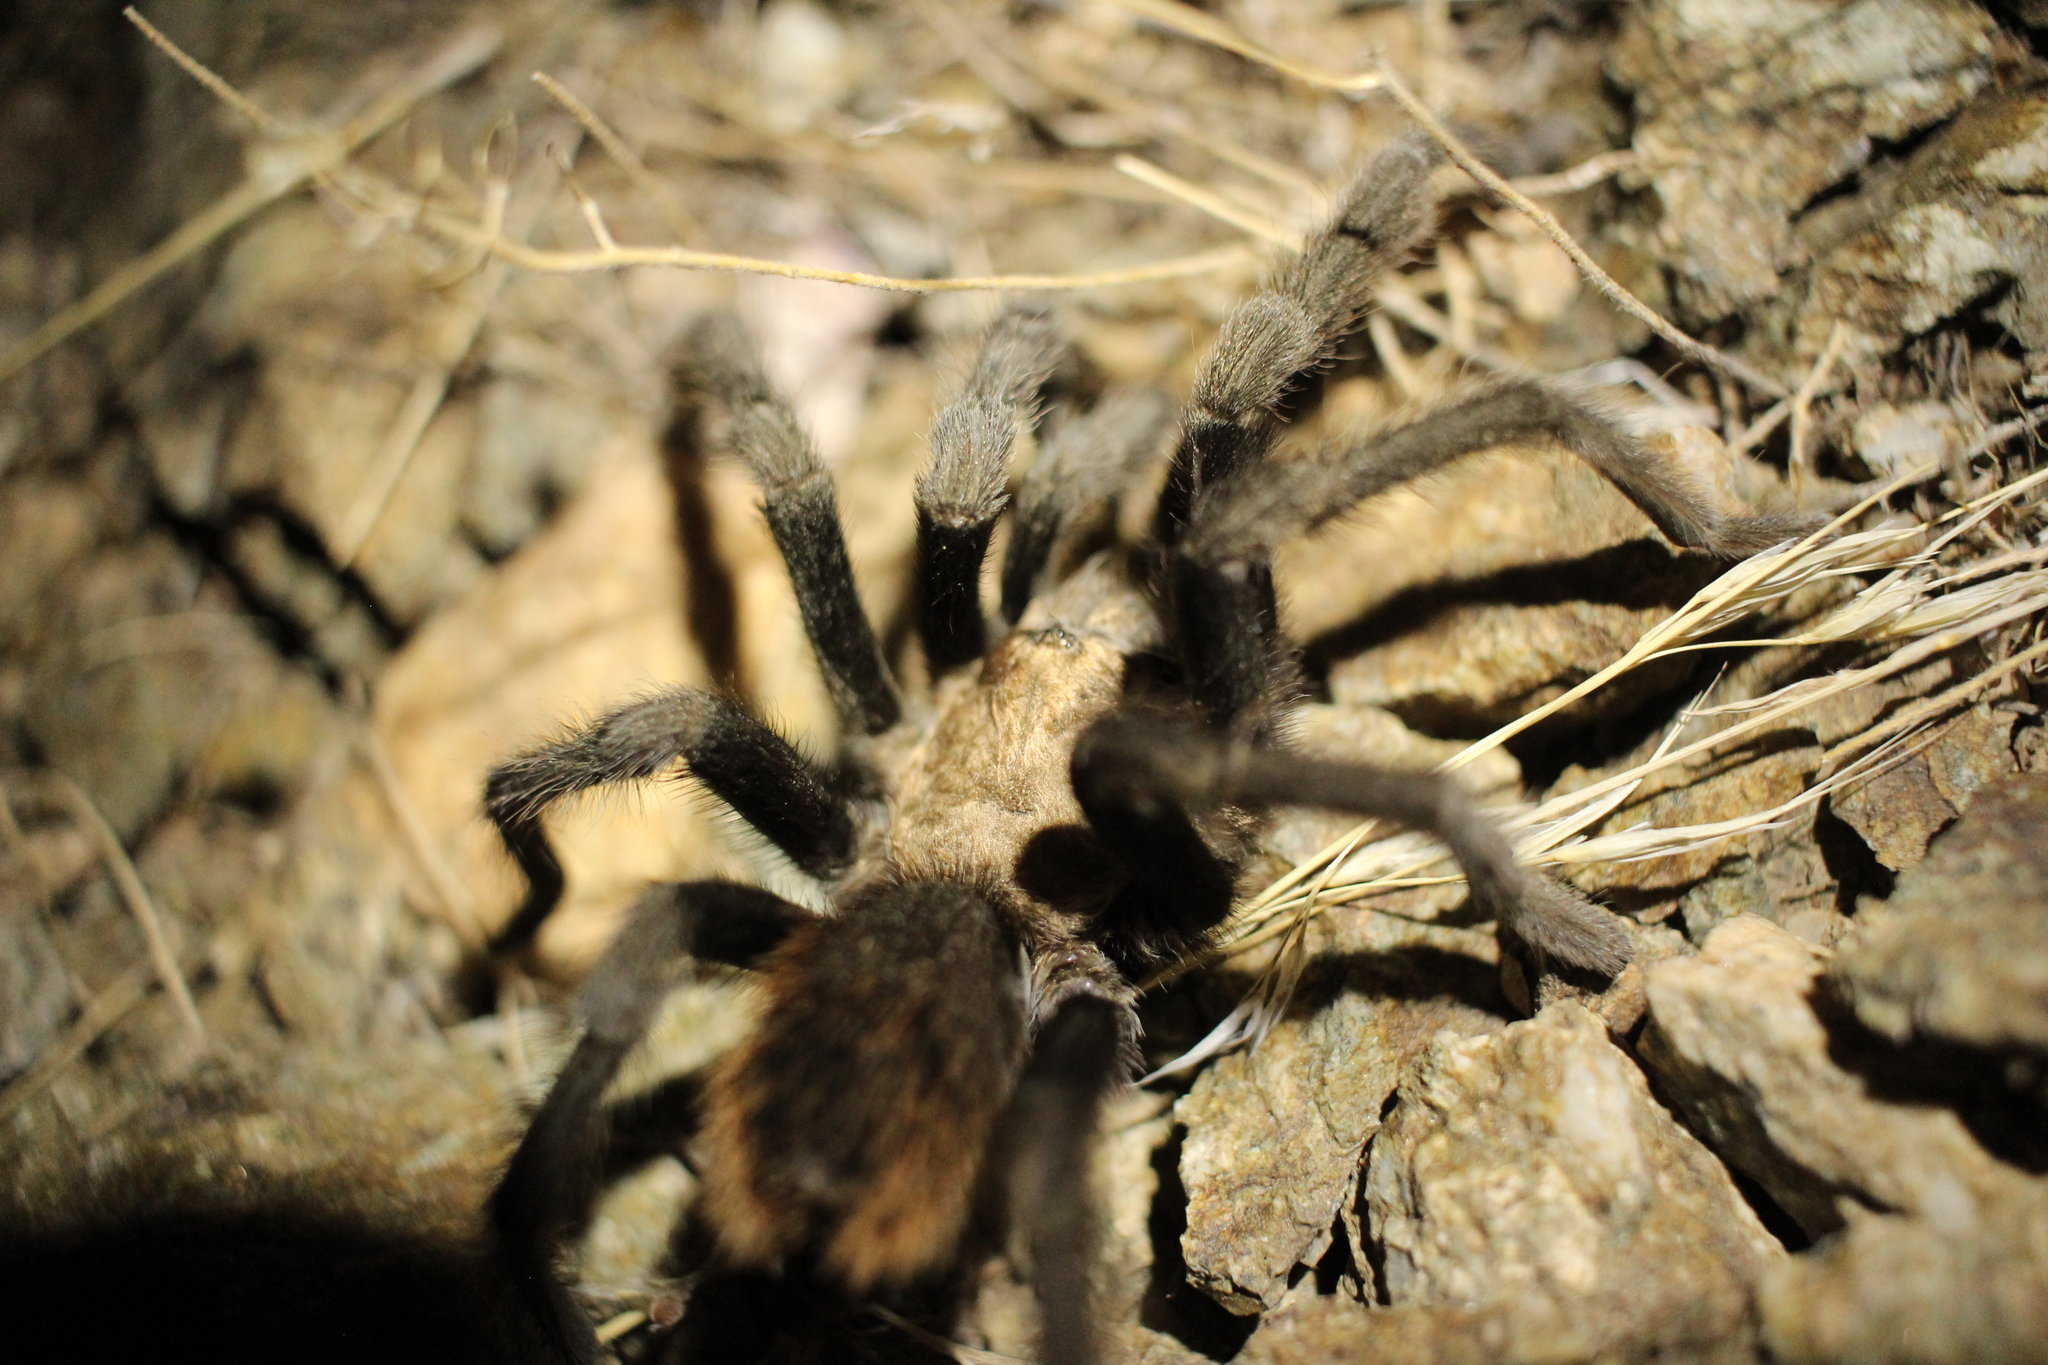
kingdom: Animalia
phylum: Arthropoda
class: Arachnida
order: Araneae
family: Theraphosidae
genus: Aphonopelma
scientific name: Aphonopelma iodius
